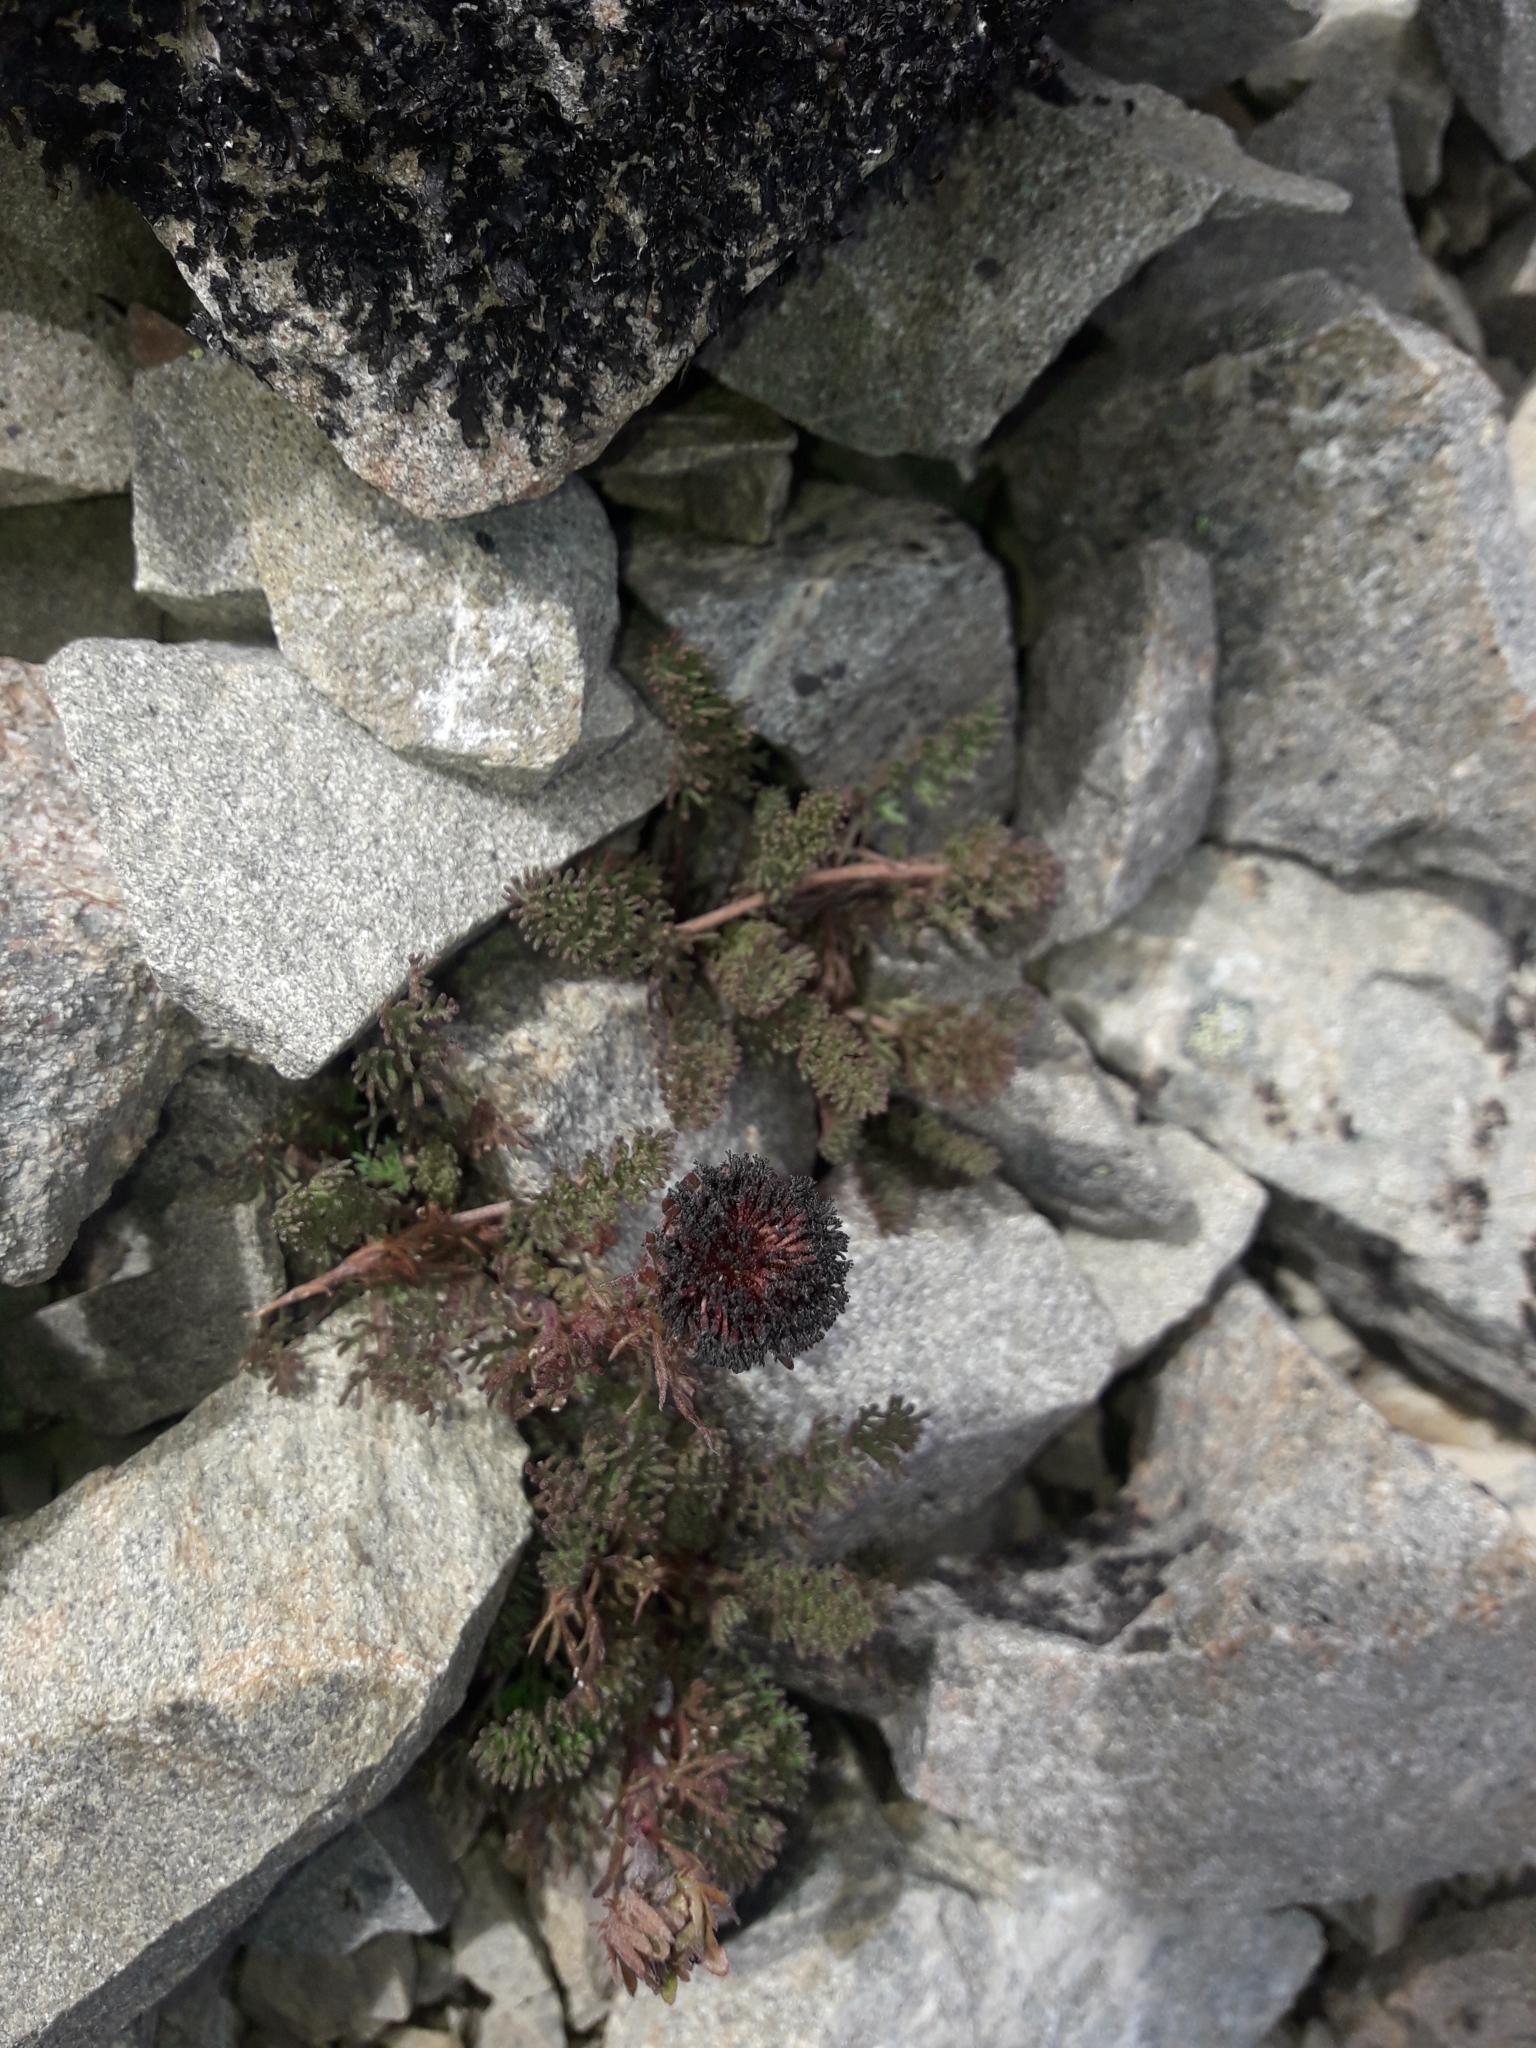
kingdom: Plantae
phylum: Tracheophyta
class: Magnoliopsida
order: Asterales
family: Asteraceae
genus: Leptinella
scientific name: Leptinella atrata
